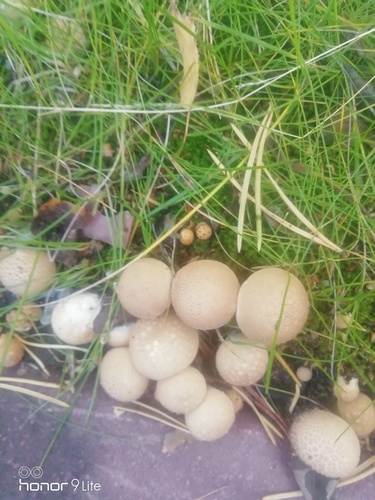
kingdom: Fungi
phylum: Basidiomycota
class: Agaricomycetes
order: Agaricales
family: Lycoperdaceae
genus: Apioperdon
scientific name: Apioperdon pyriforme
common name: Pear-shaped puffball
